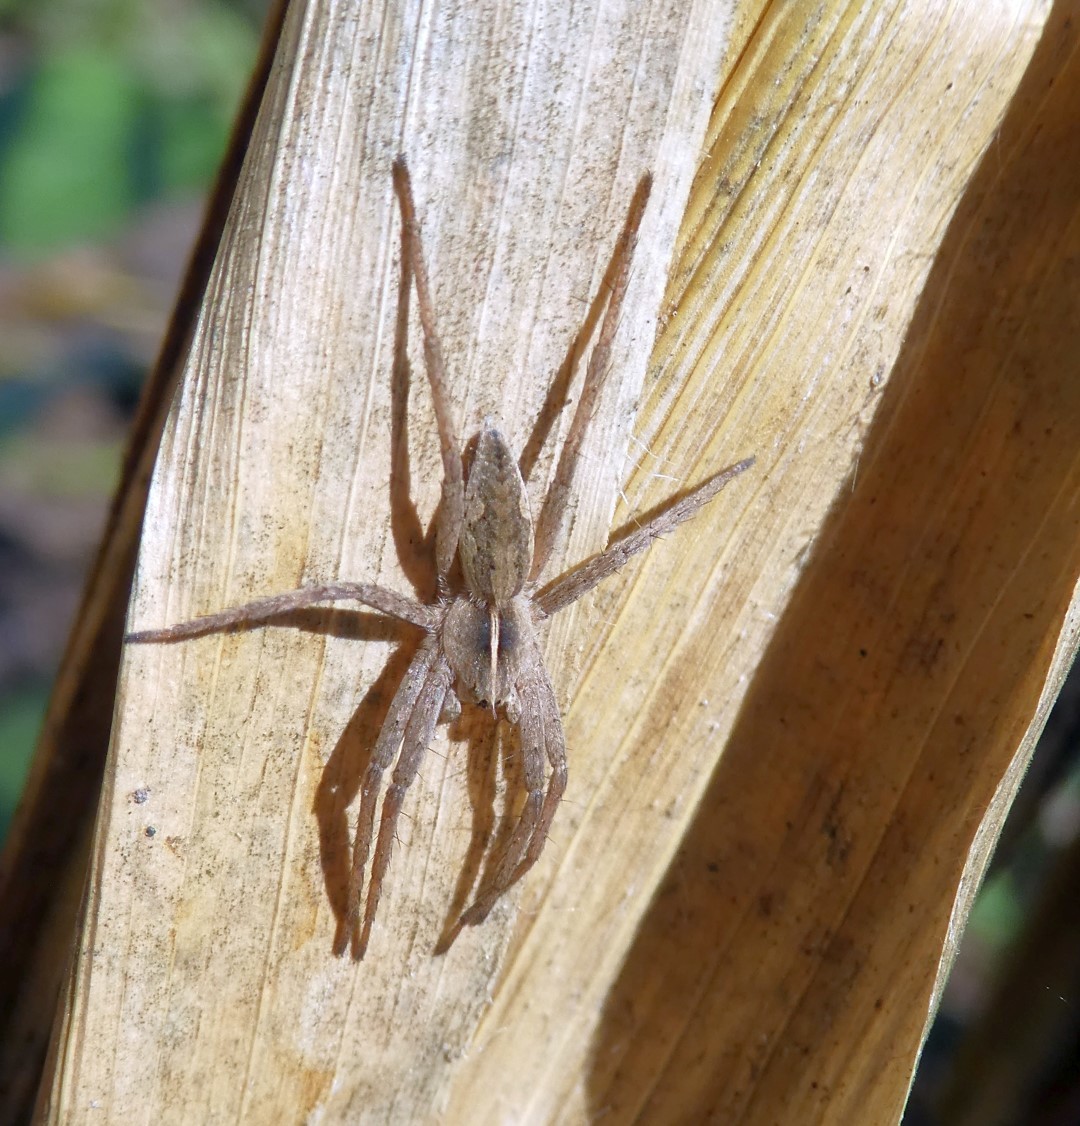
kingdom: Animalia
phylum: Arthropoda
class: Arachnida
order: Araneae
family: Pisauridae
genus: Pisaura
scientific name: Pisaura mirabilis
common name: Tent spider
